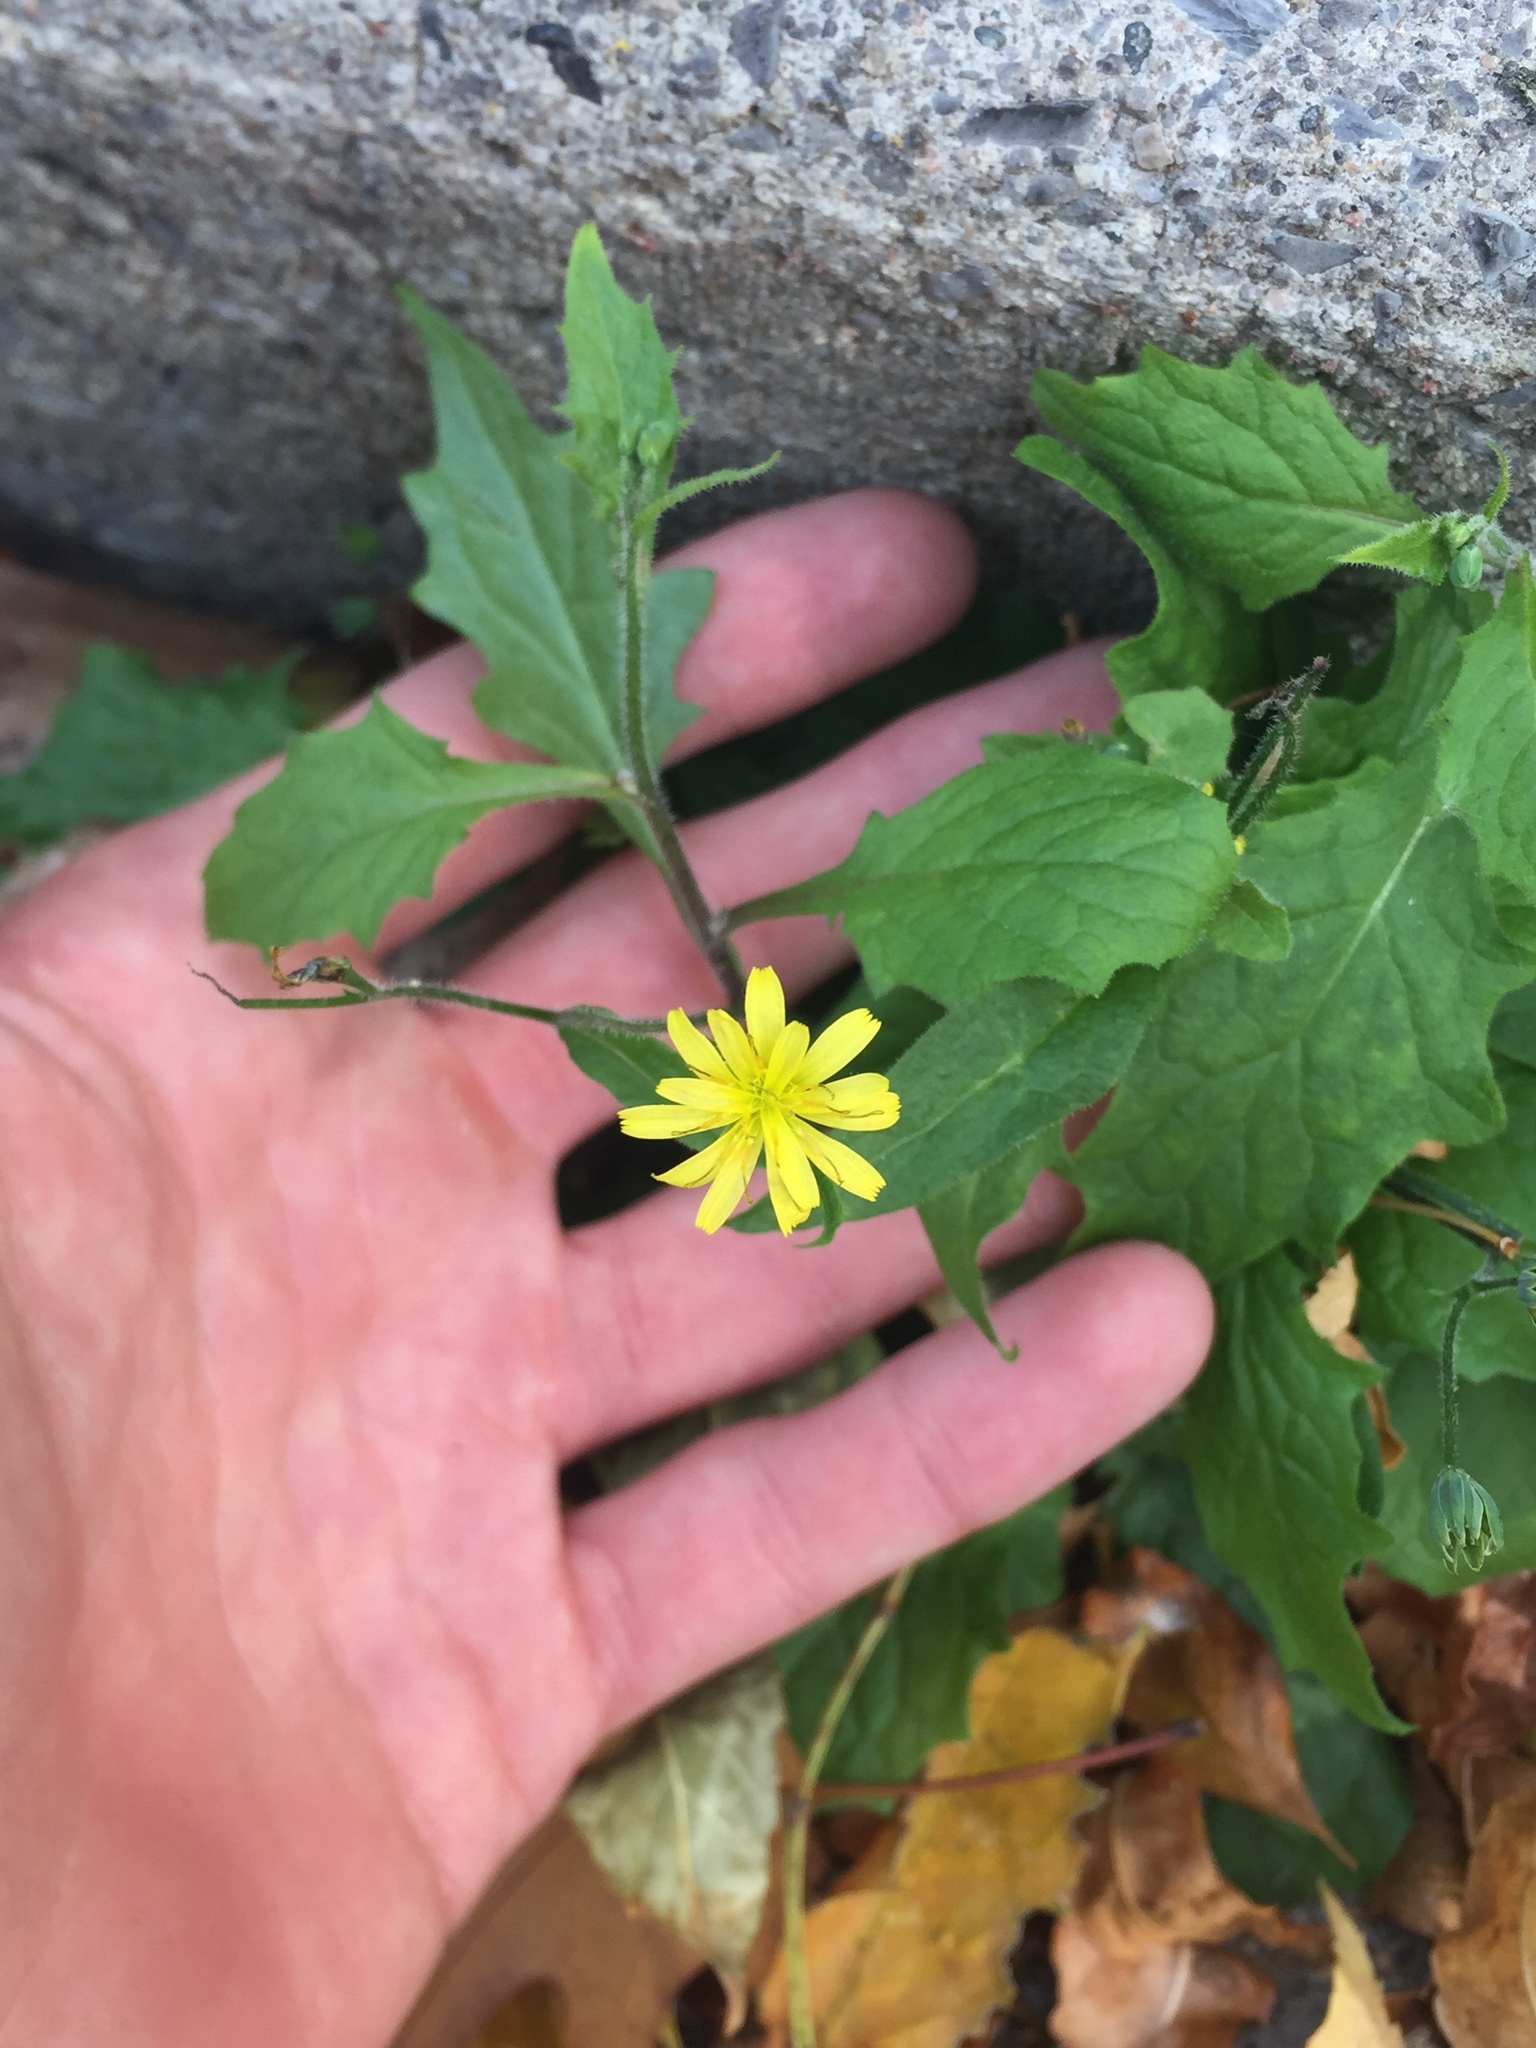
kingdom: Plantae
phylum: Tracheophyta
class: Magnoliopsida
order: Asterales
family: Asteraceae
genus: Lapsana
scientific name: Lapsana communis
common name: Nipplewort
